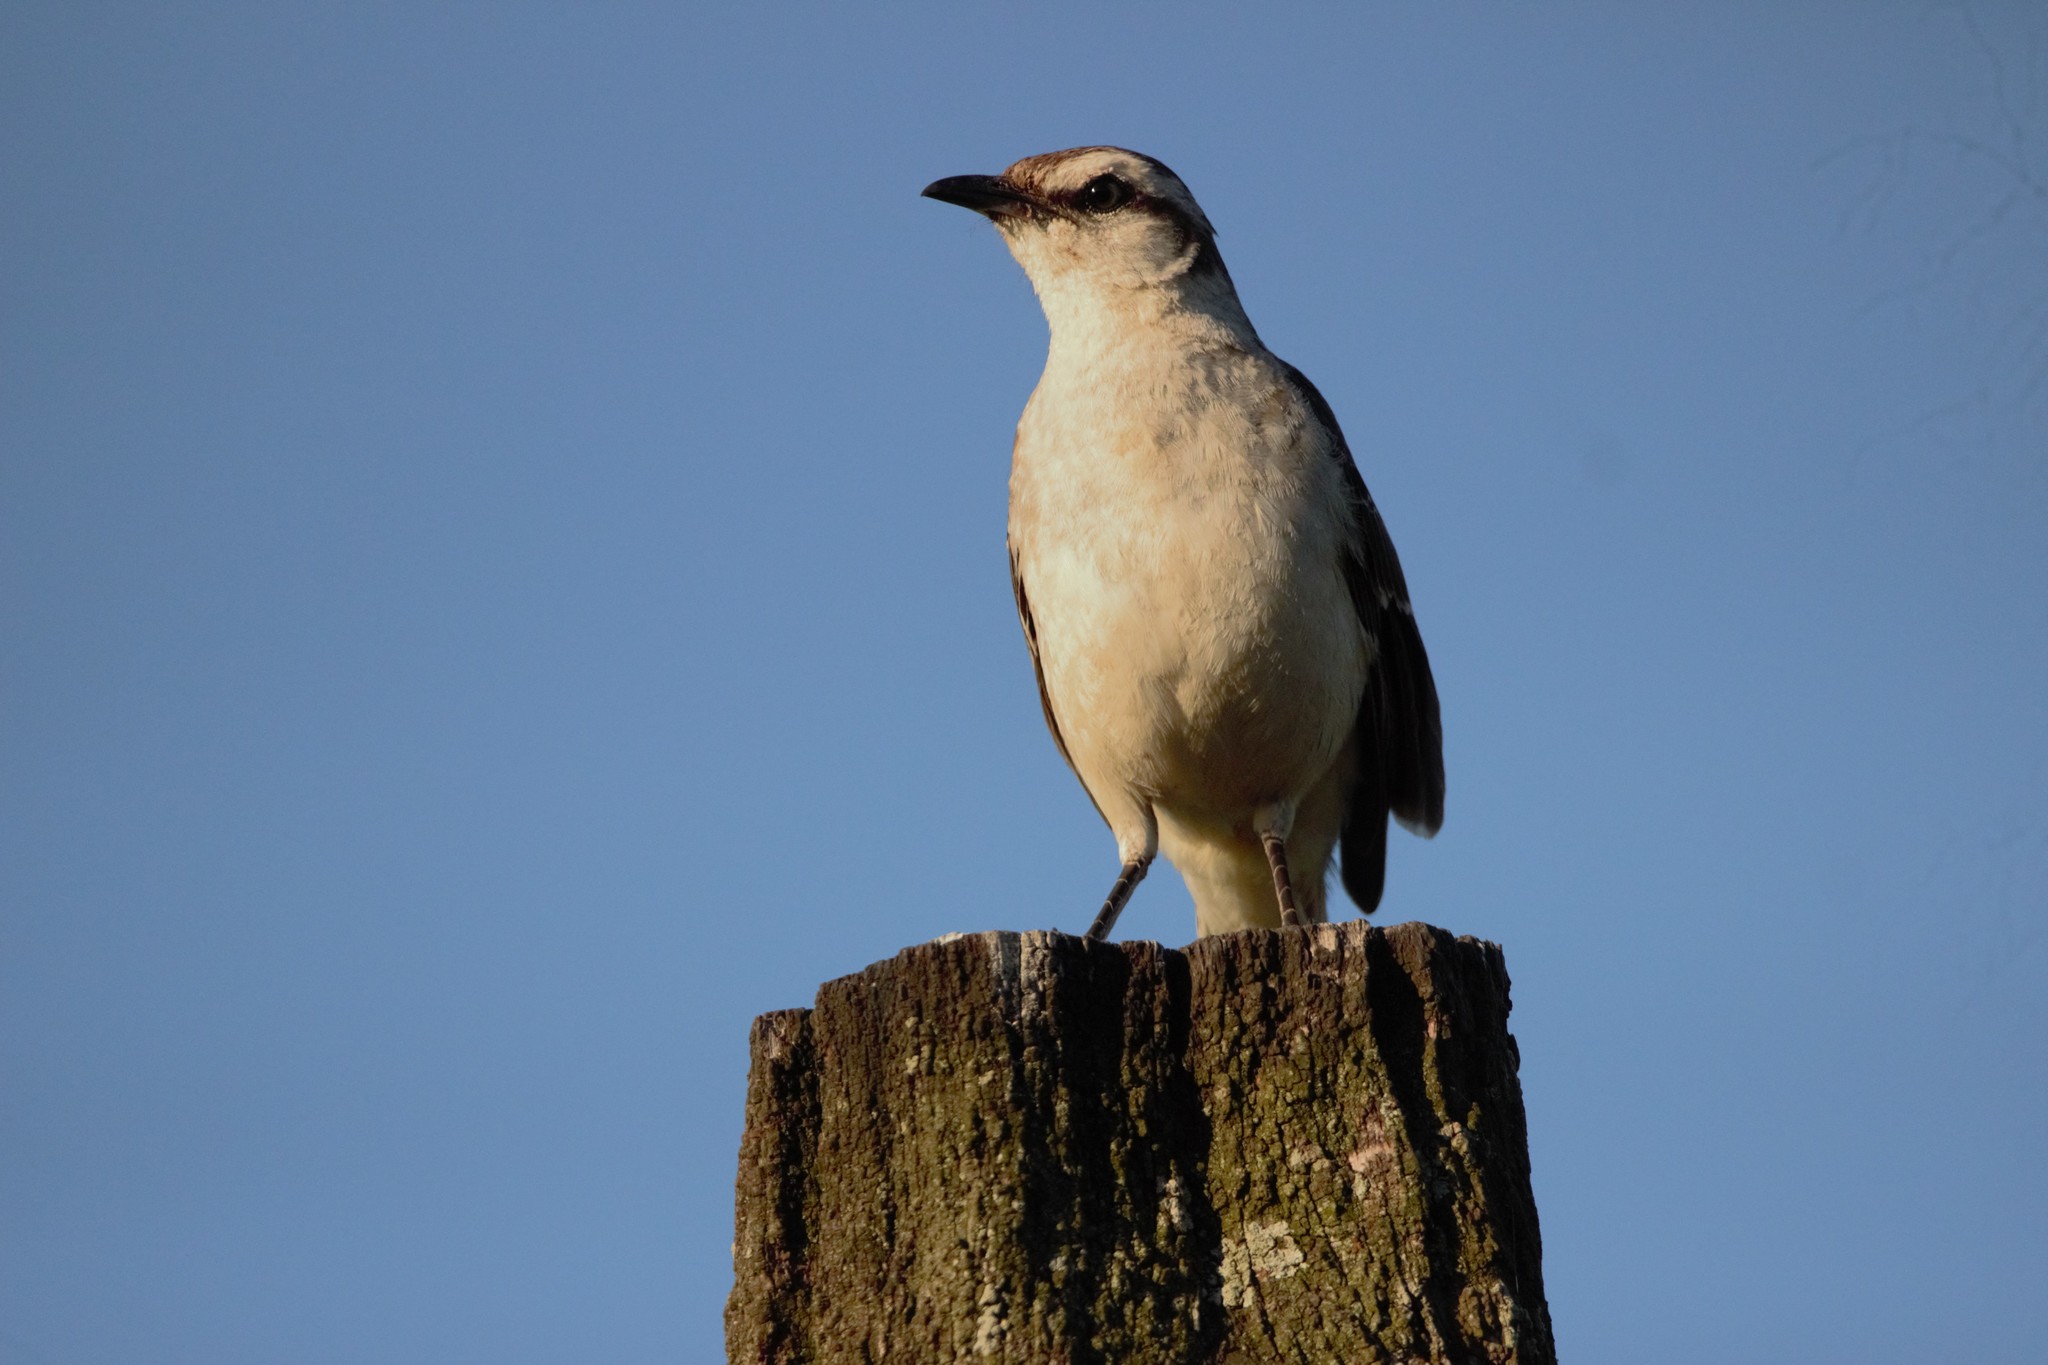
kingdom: Animalia
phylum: Chordata
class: Aves
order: Passeriformes
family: Mimidae
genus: Mimus
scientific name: Mimus saturninus
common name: Chalk-browed mockingbird
